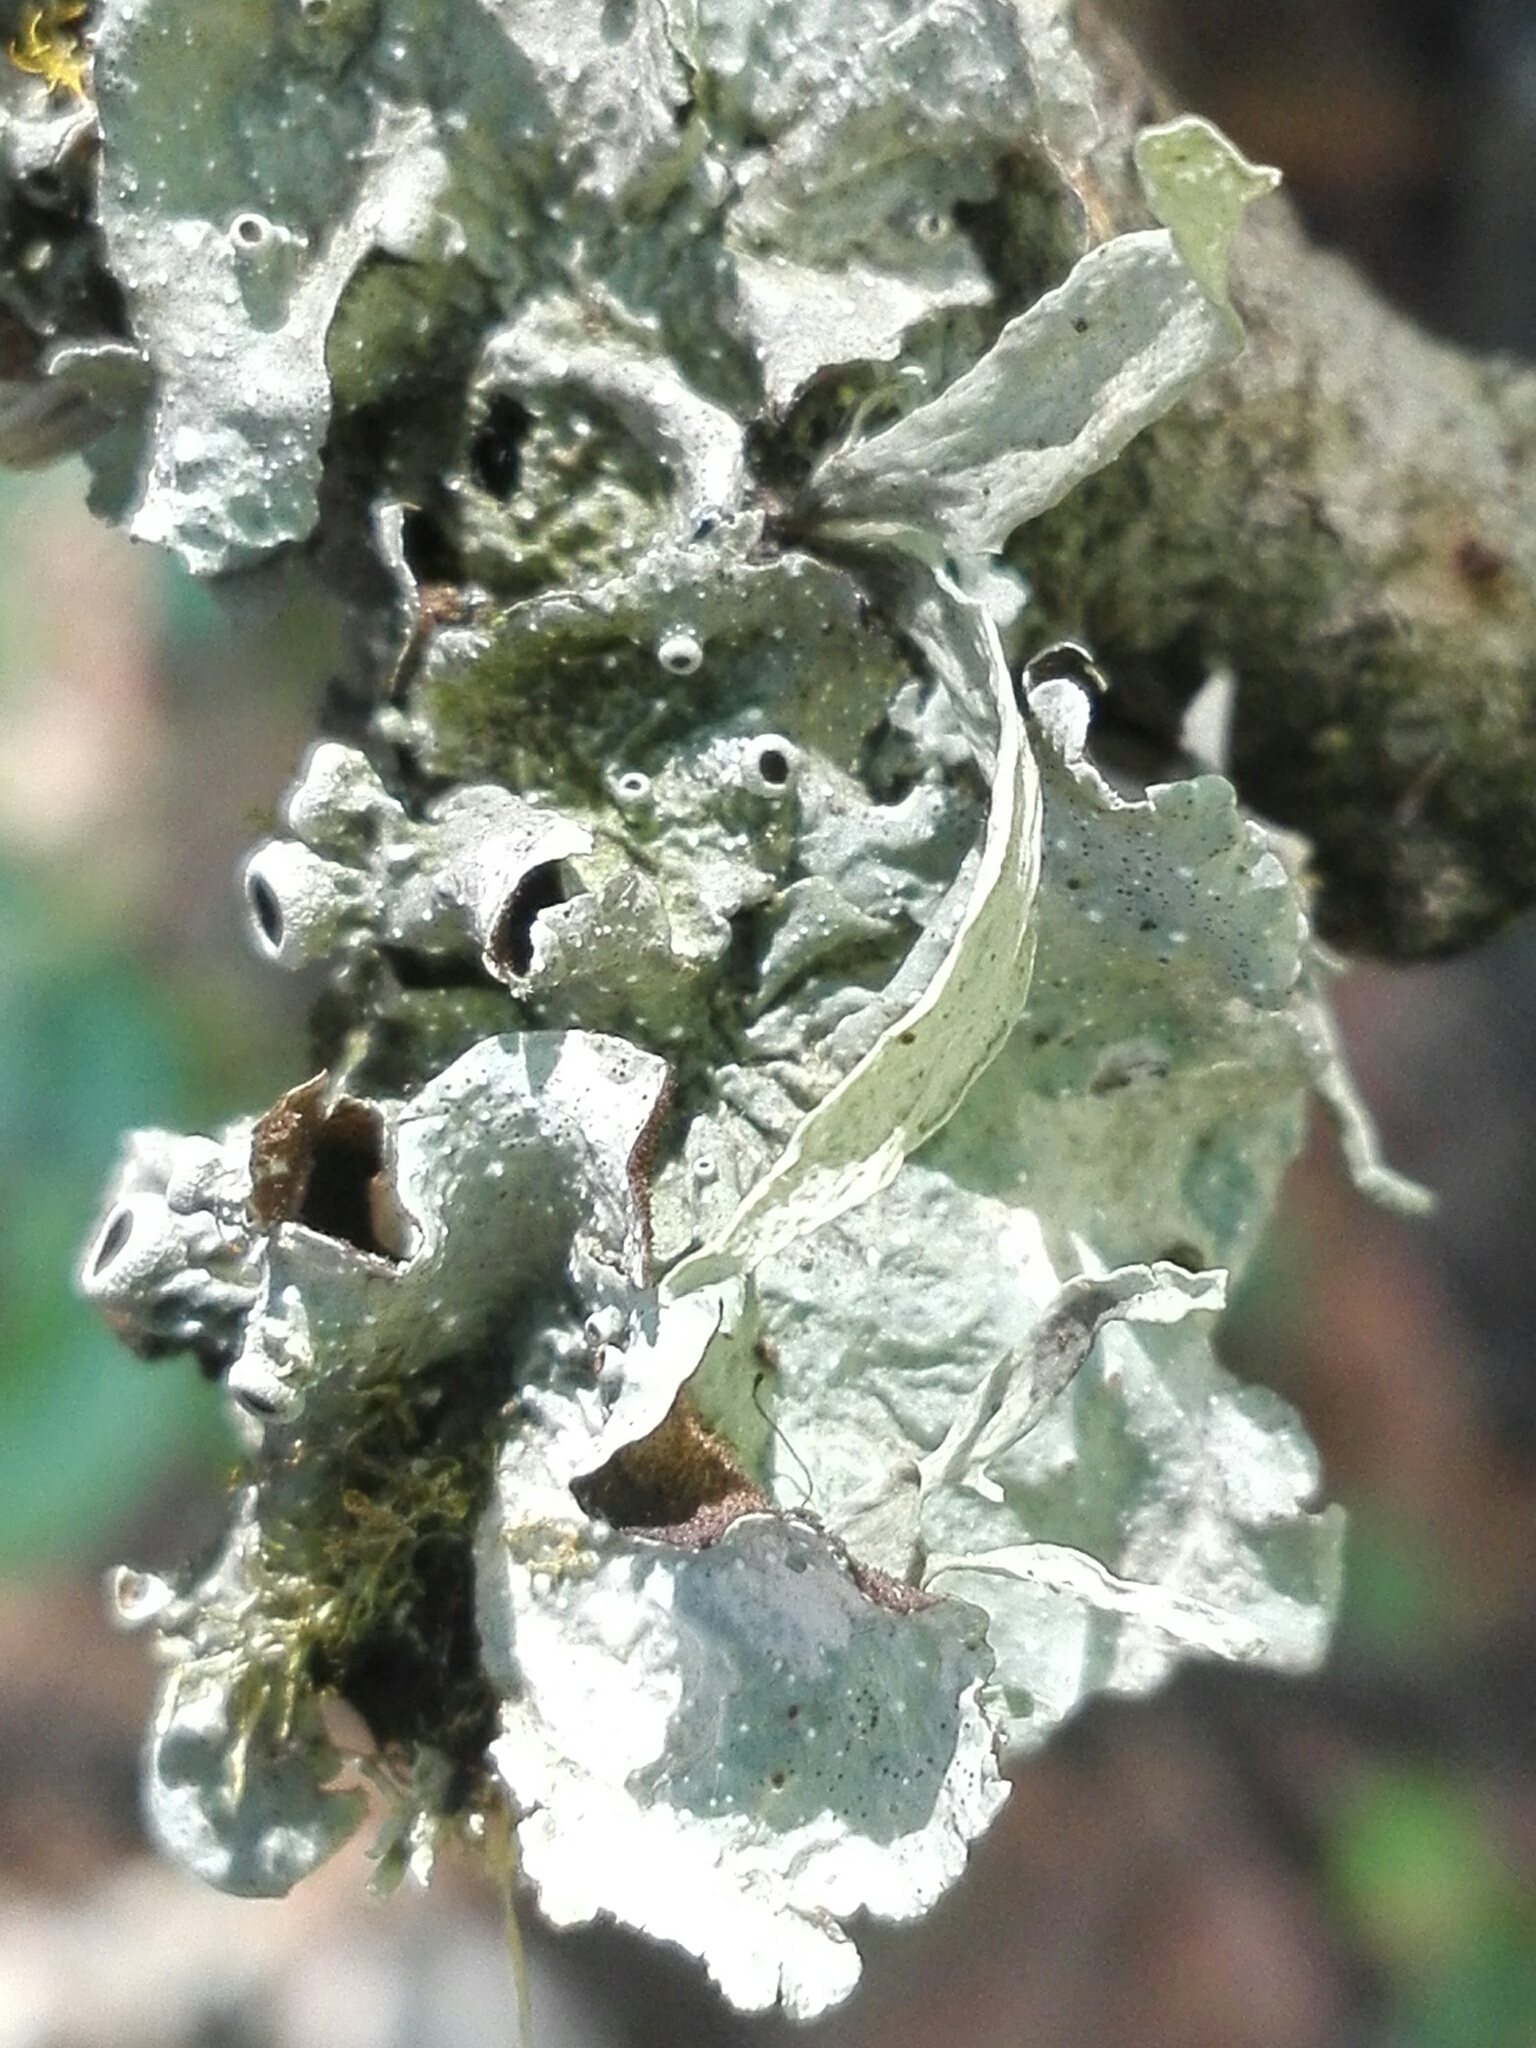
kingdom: Fungi
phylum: Ascomycota
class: Lecanoromycetes
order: Lecanorales
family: Parmeliaceae
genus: Punctelia
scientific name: Punctelia bolliana
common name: Eastern speckled shield lichen
